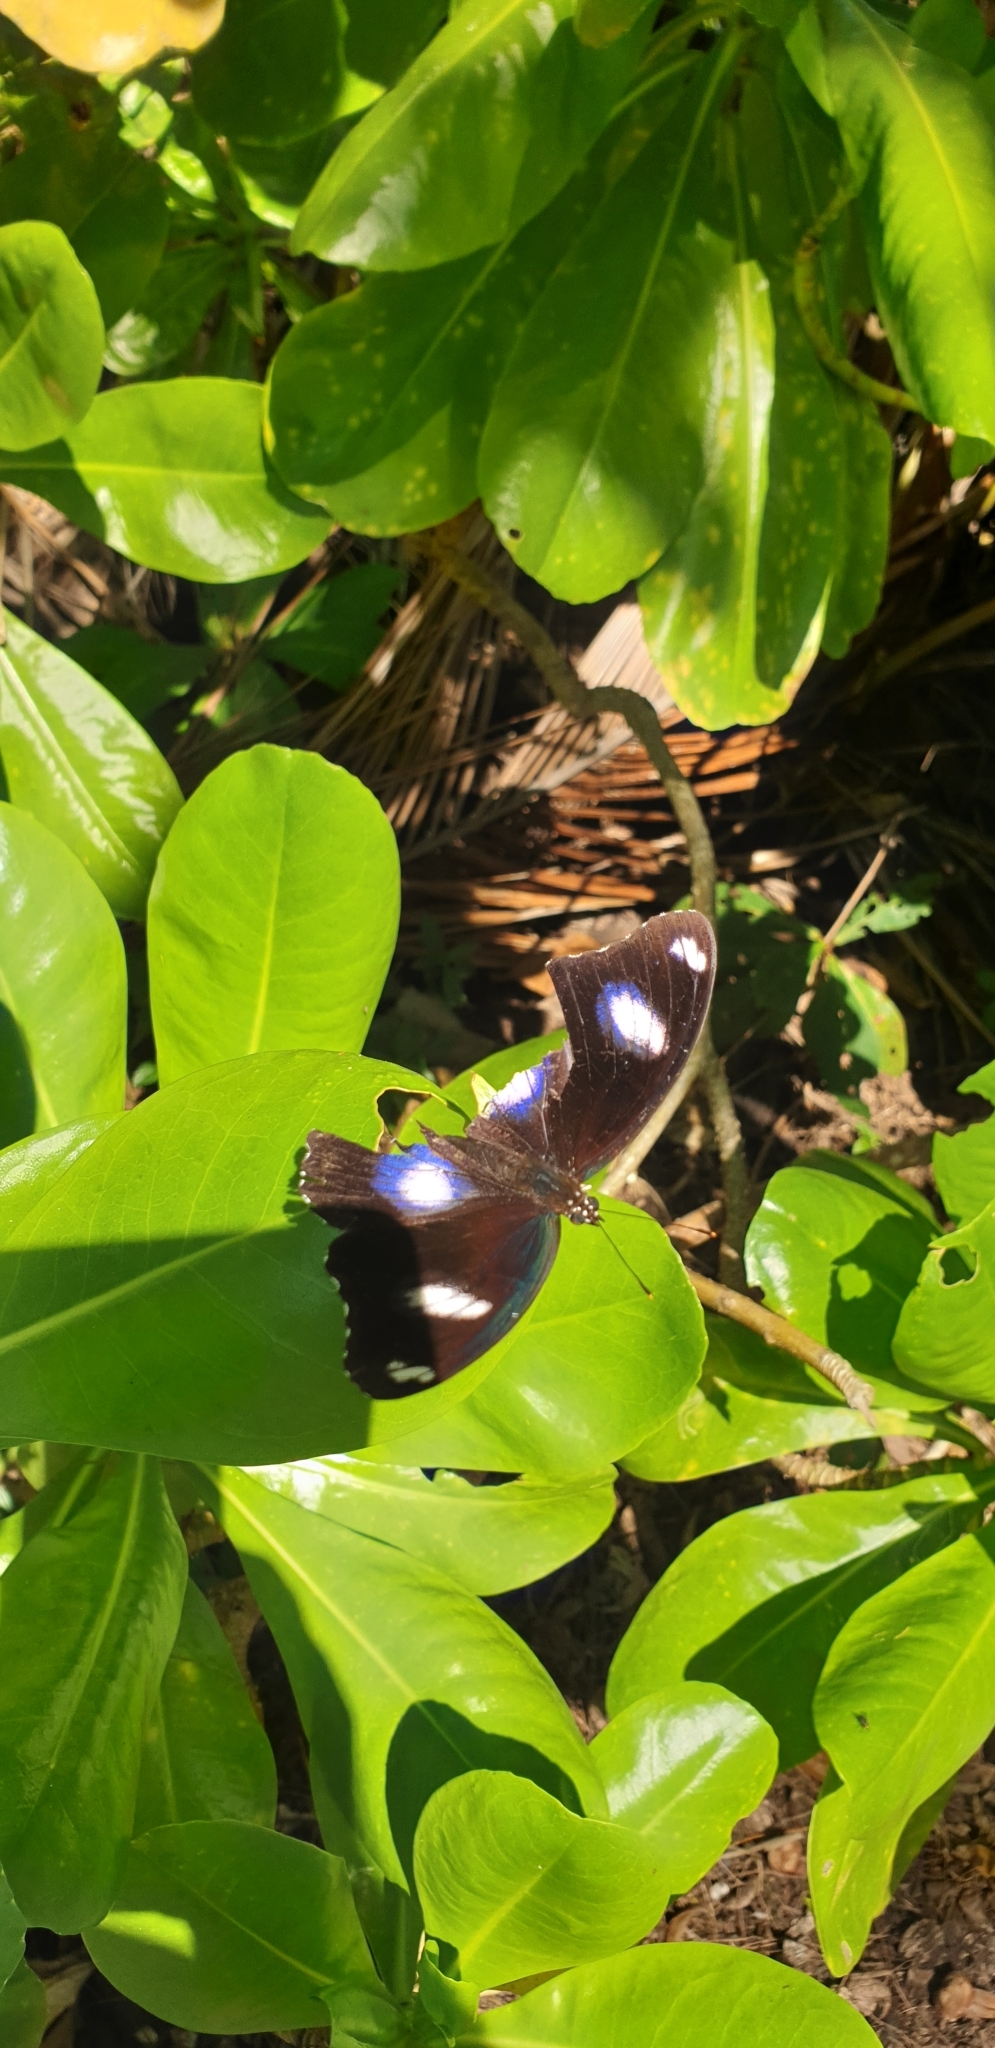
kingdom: Animalia
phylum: Arthropoda
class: Insecta
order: Lepidoptera
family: Nymphalidae
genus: Hypolimnas
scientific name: Hypolimnas bolina
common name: Great eggfly
